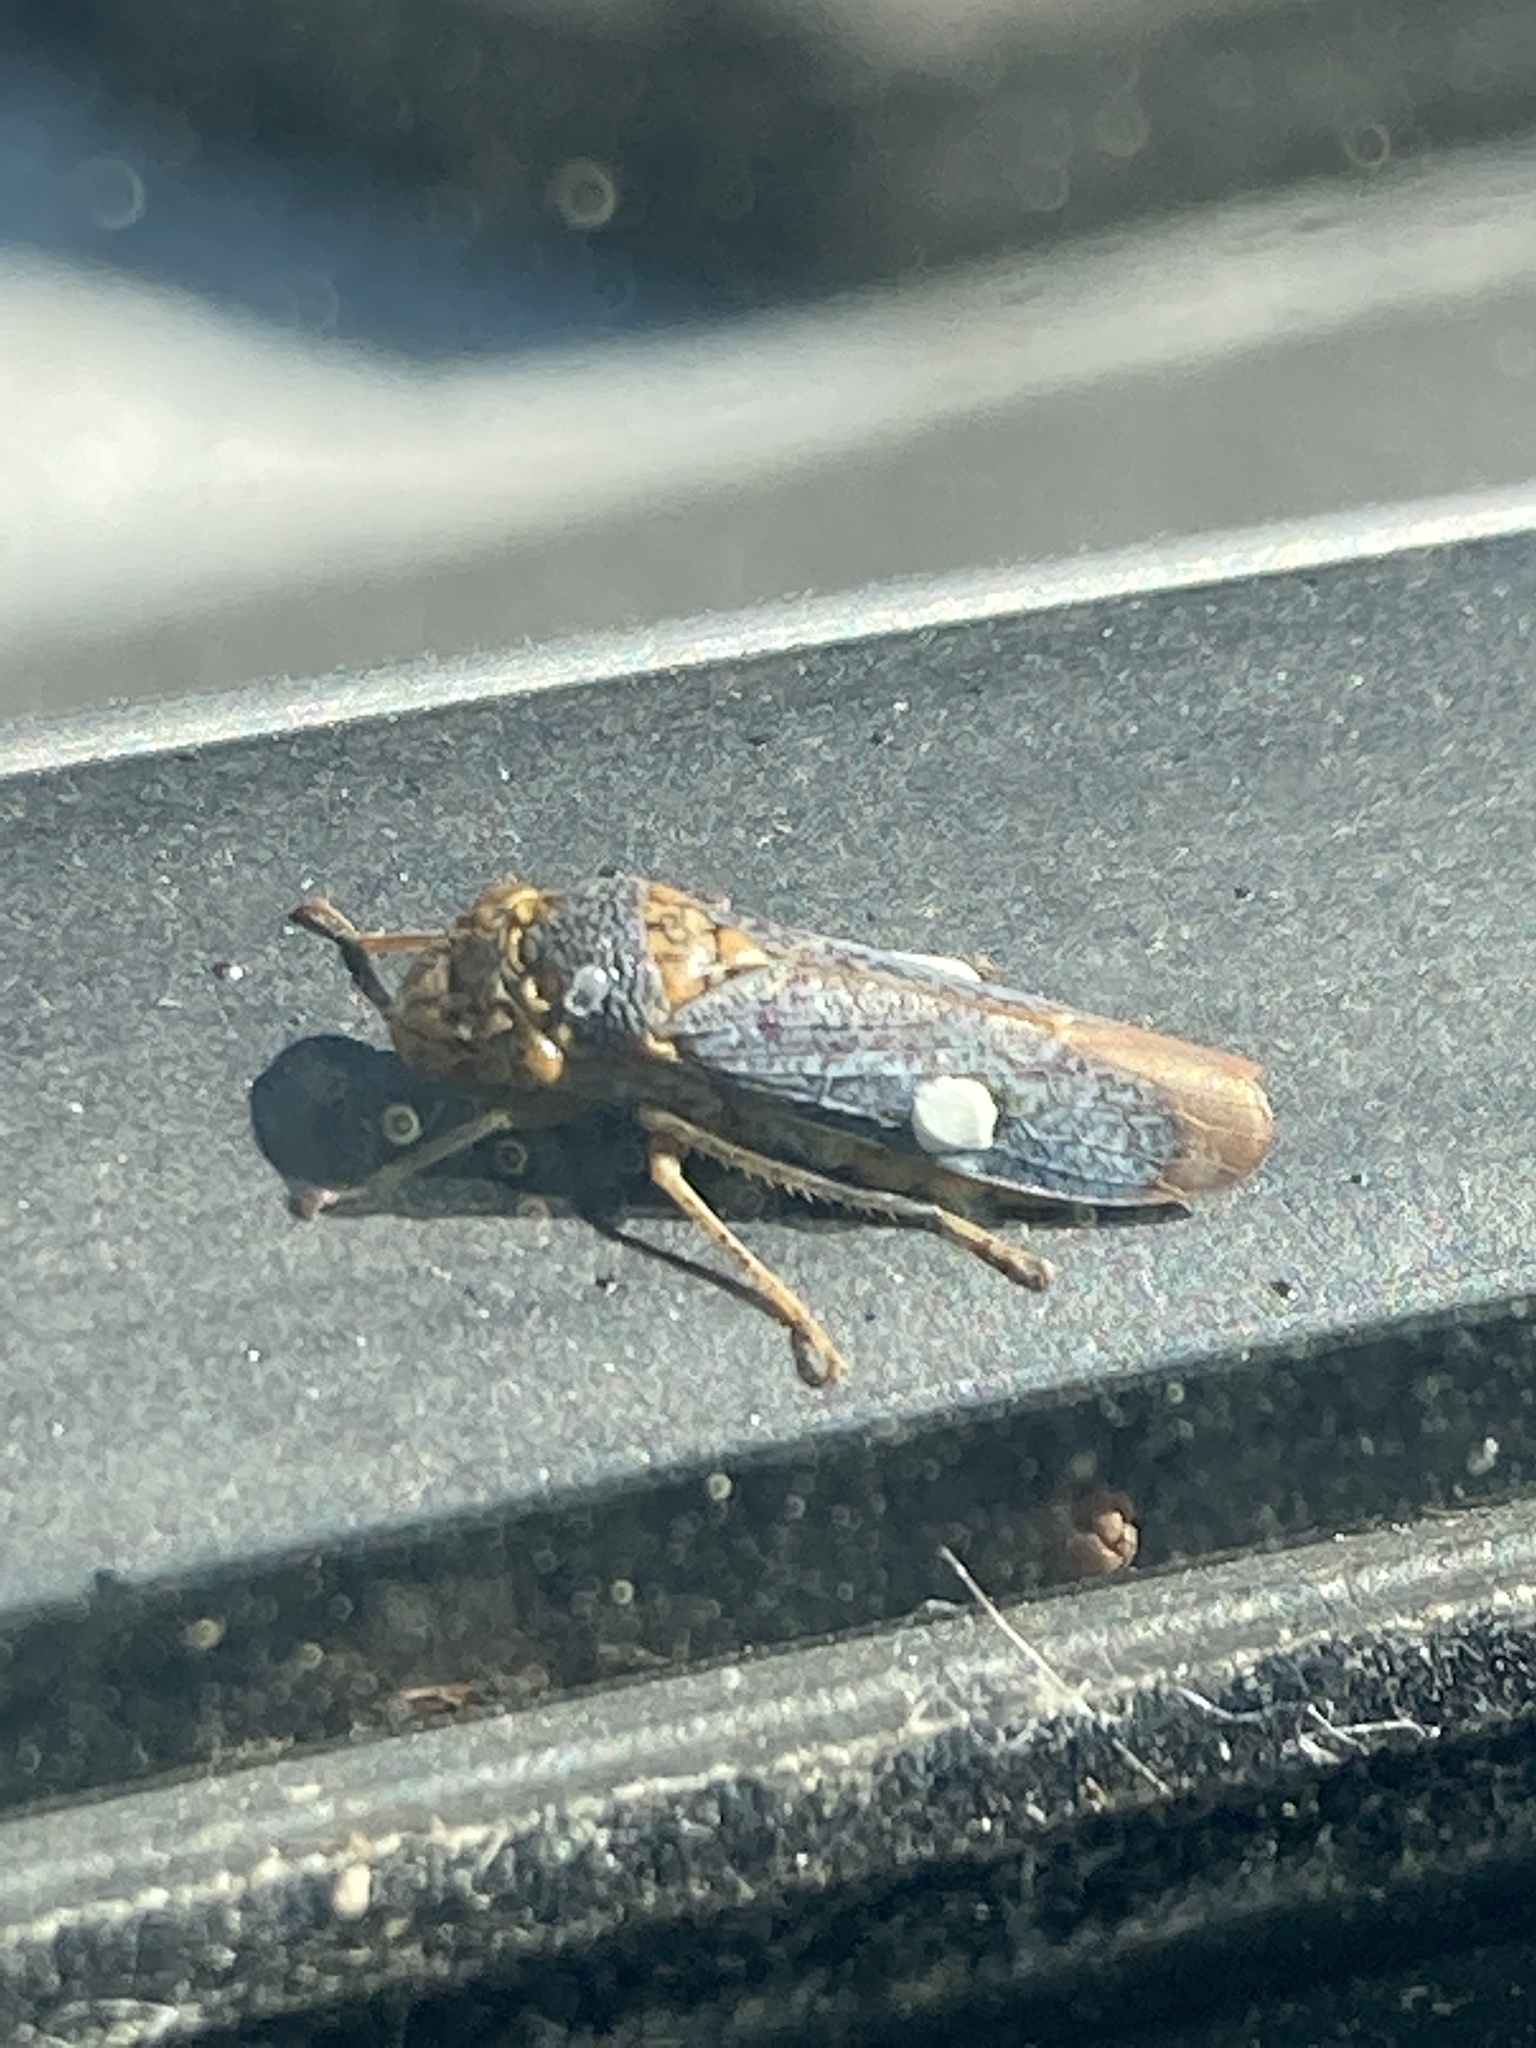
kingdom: Animalia
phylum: Arthropoda
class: Insecta
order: Hemiptera
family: Cicadellidae
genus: Oncometopia
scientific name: Oncometopia orbona
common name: Broad-headed sharpshooter
